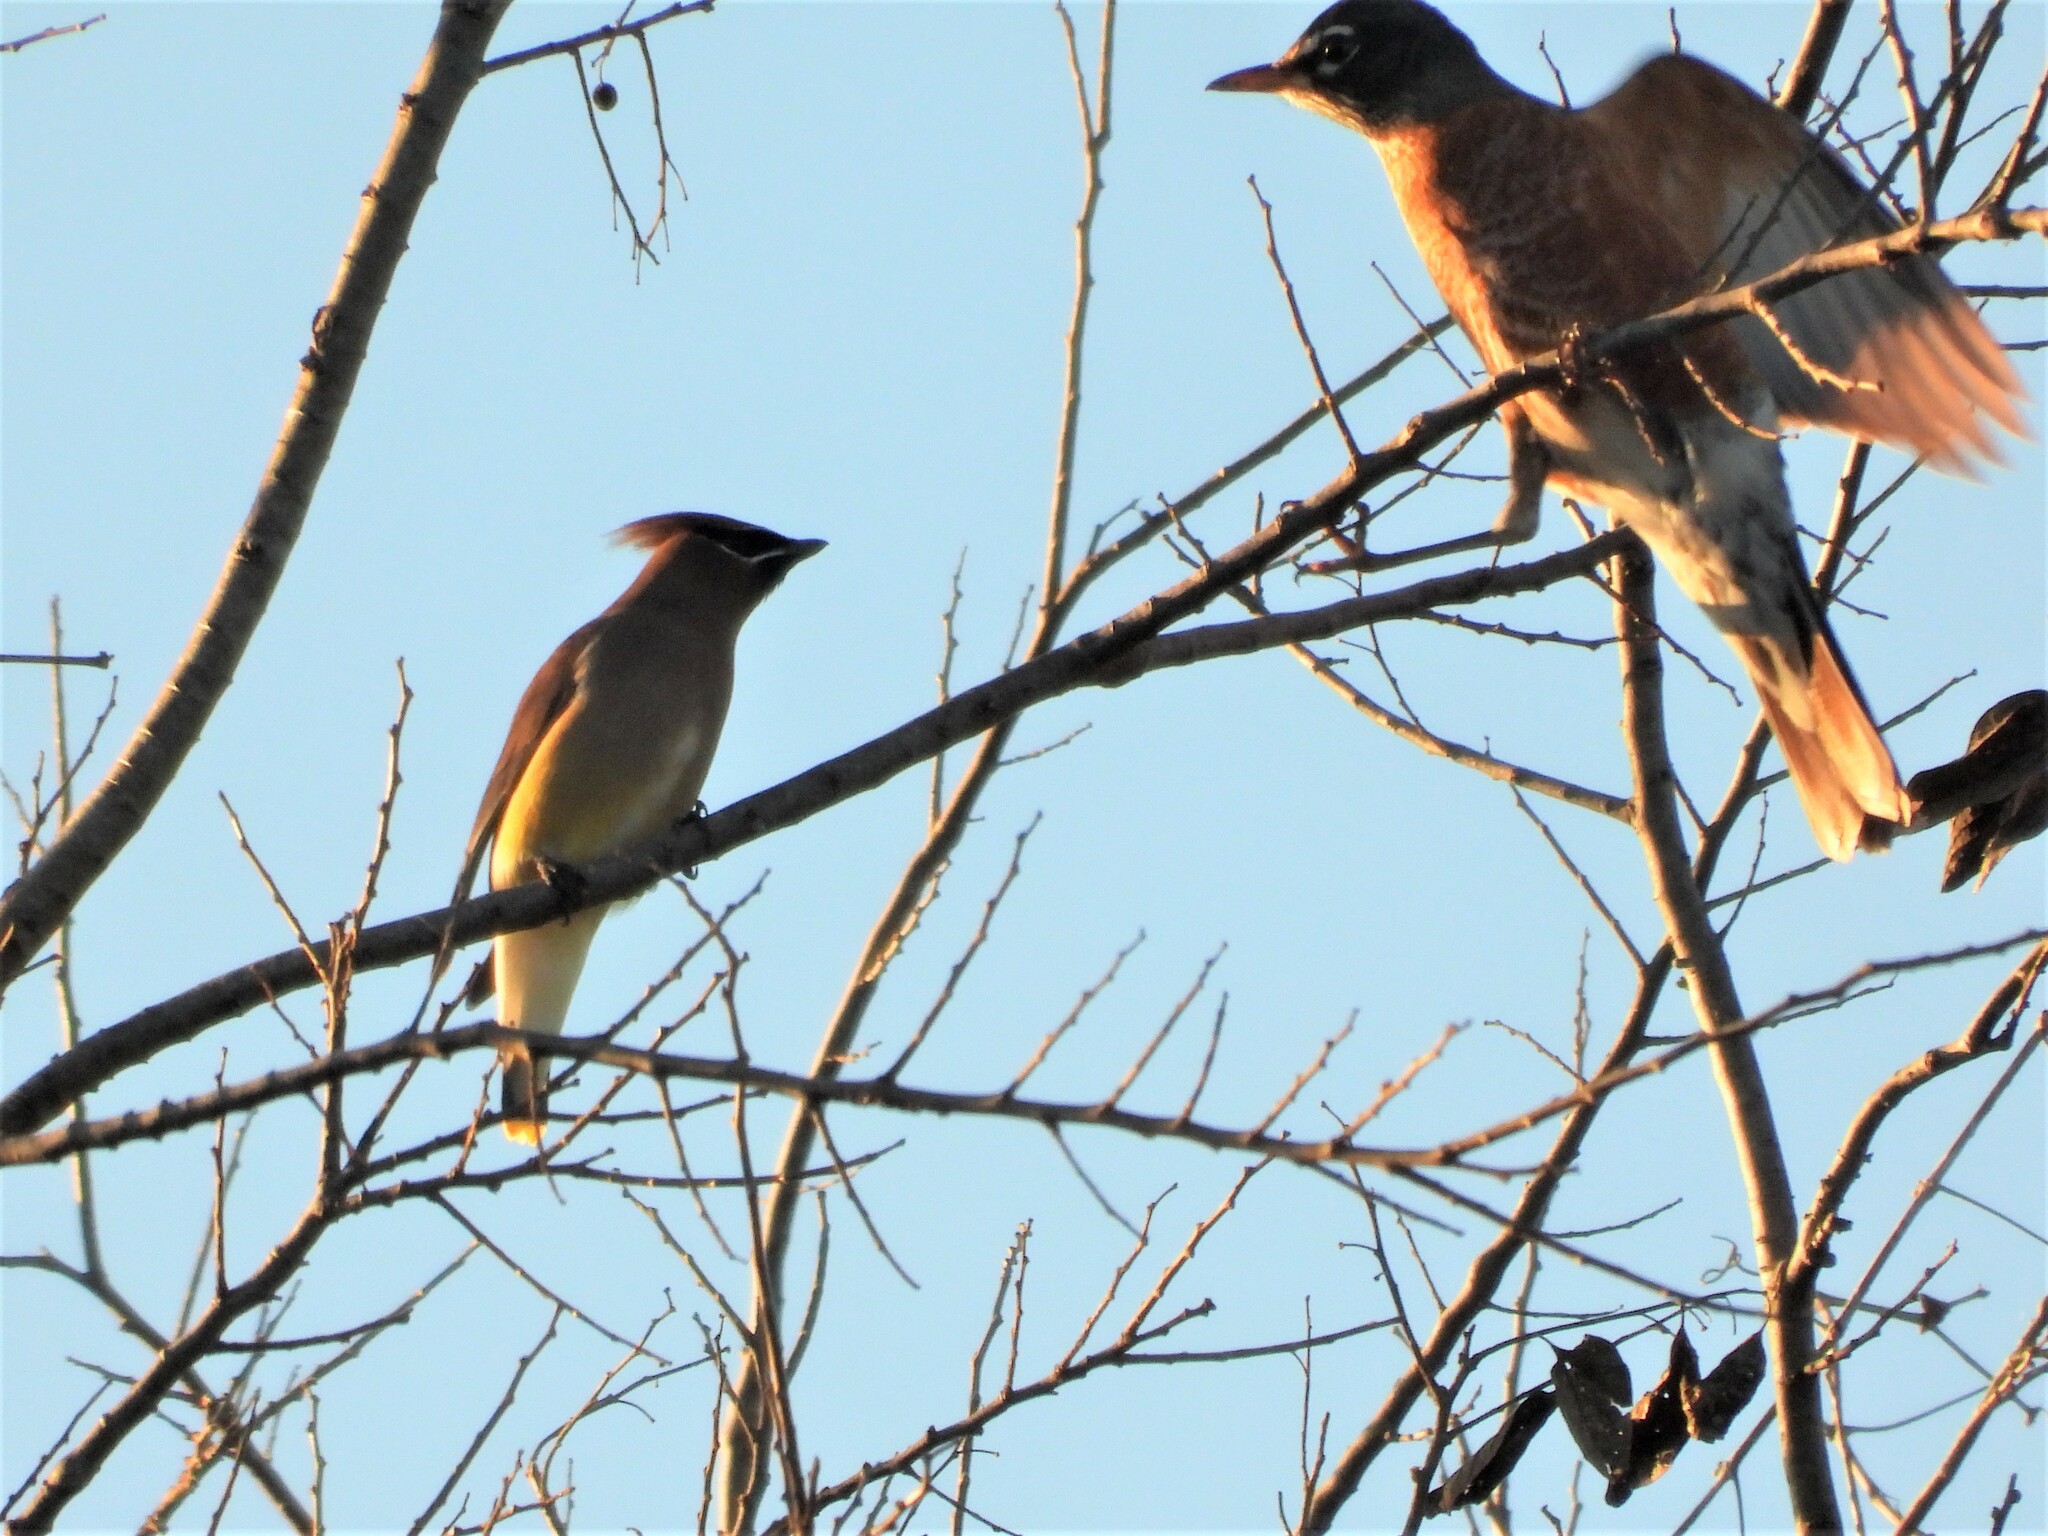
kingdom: Animalia
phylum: Chordata
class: Aves
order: Passeriformes
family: Bombycillidae
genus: Bombycilla
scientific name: Bombycilla cedrorum
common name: Cedar waxwing
